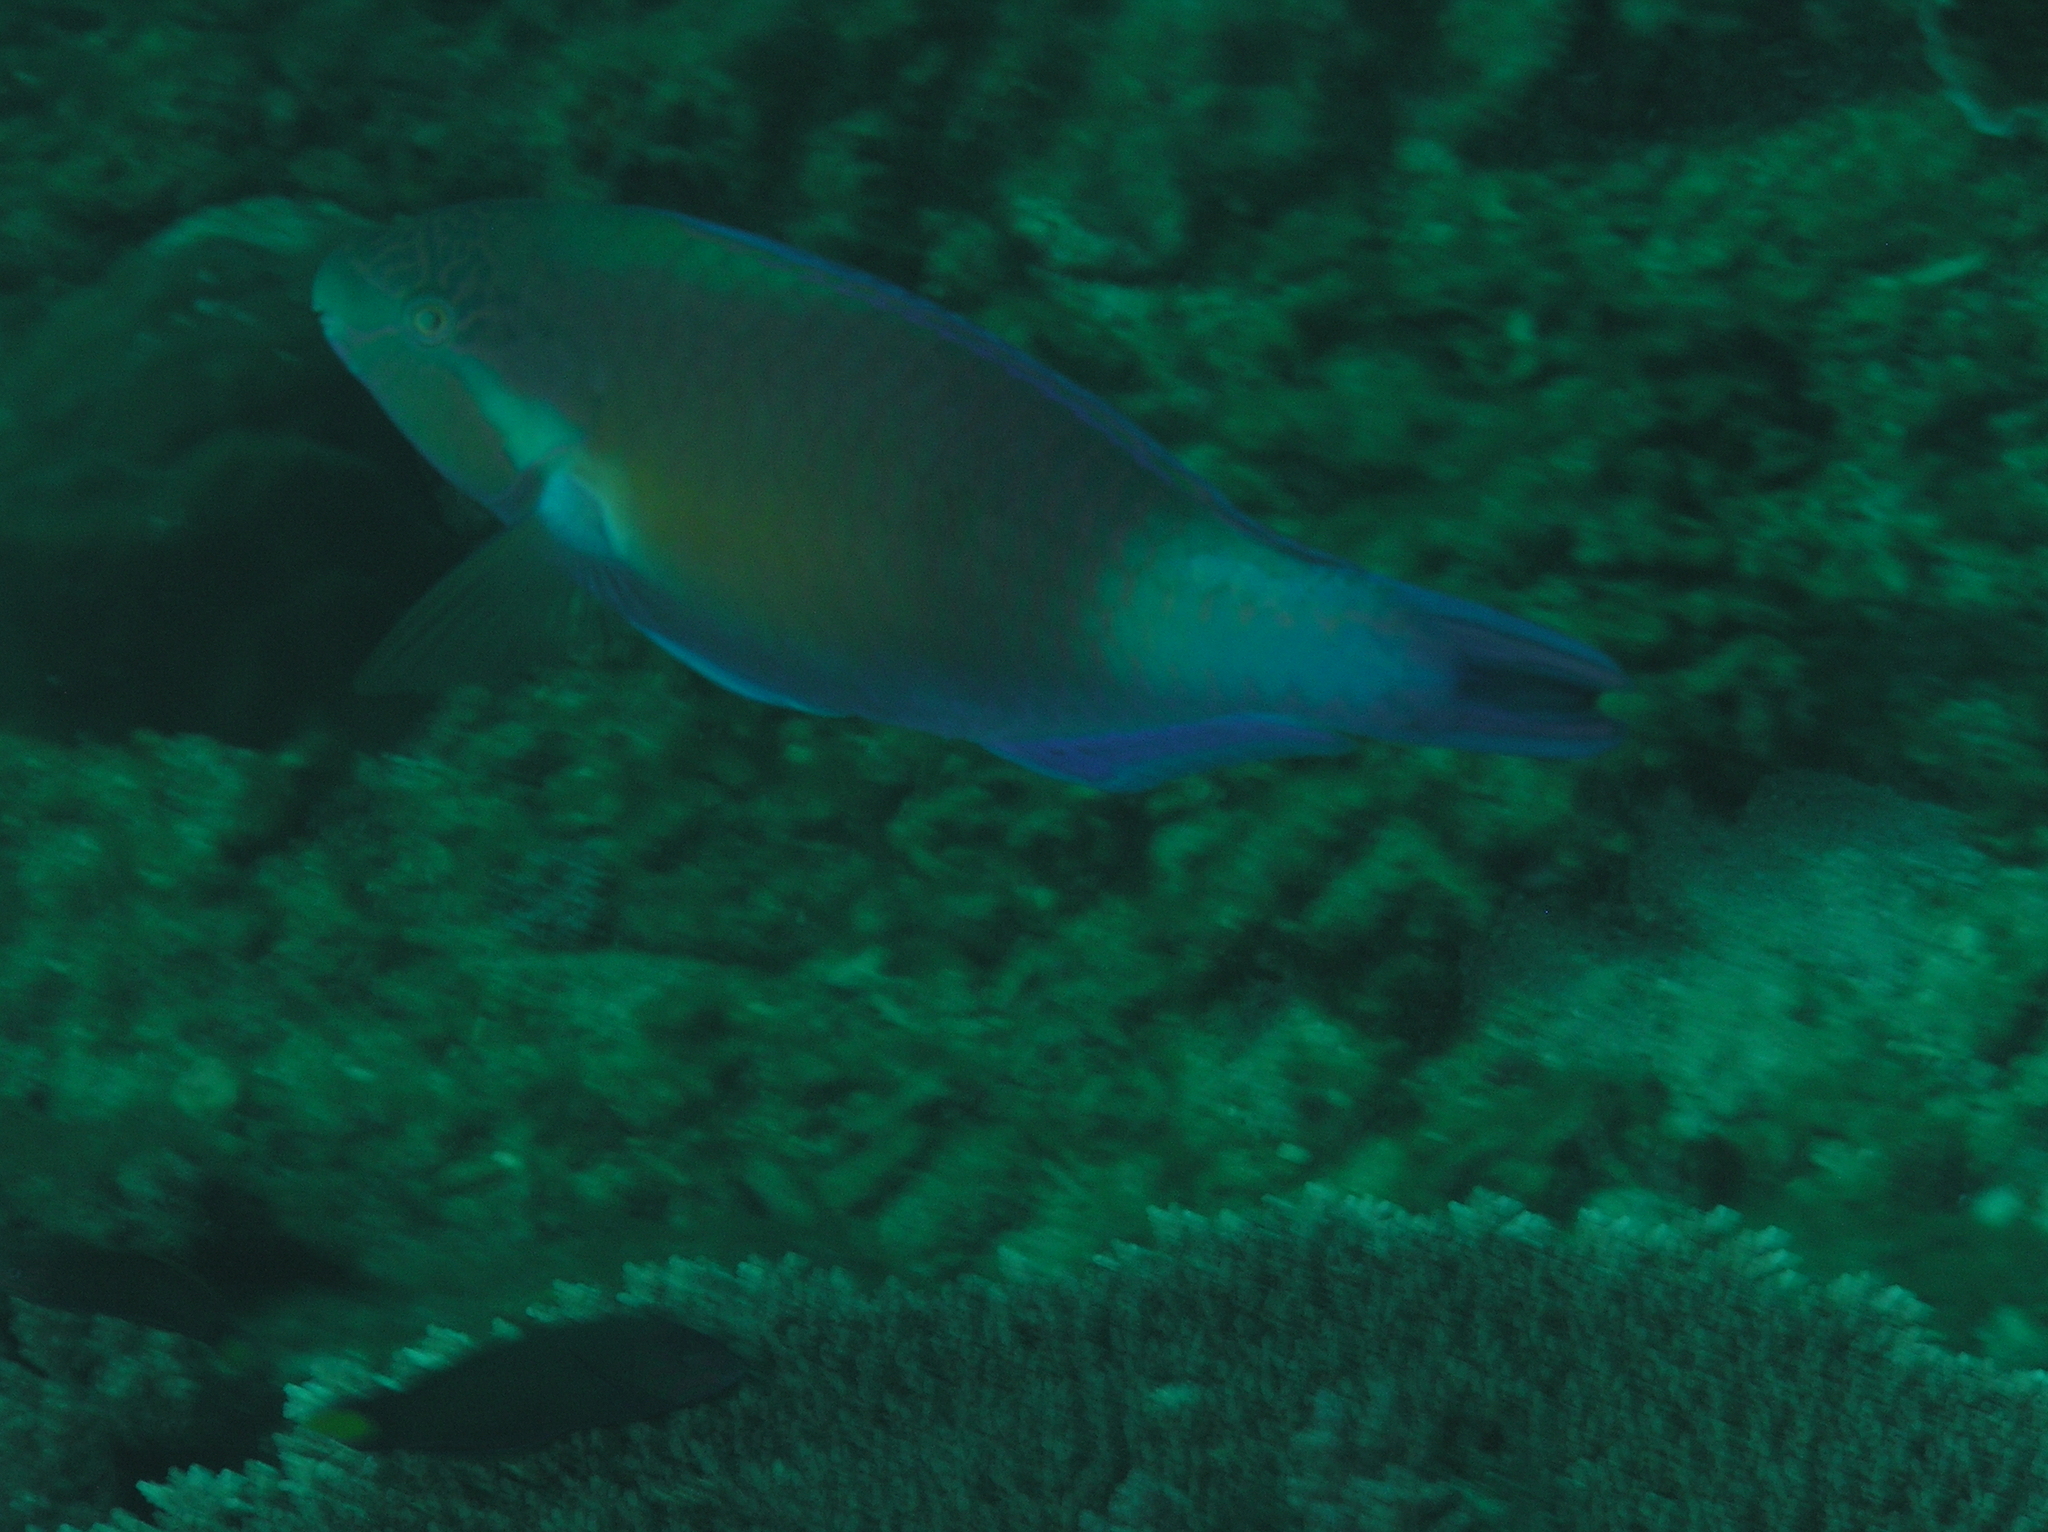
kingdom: Animalia
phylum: Chordata
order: Perciformes
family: Scaridae
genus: Scarus
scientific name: Scarus hypselopterus
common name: Java parrotfish
